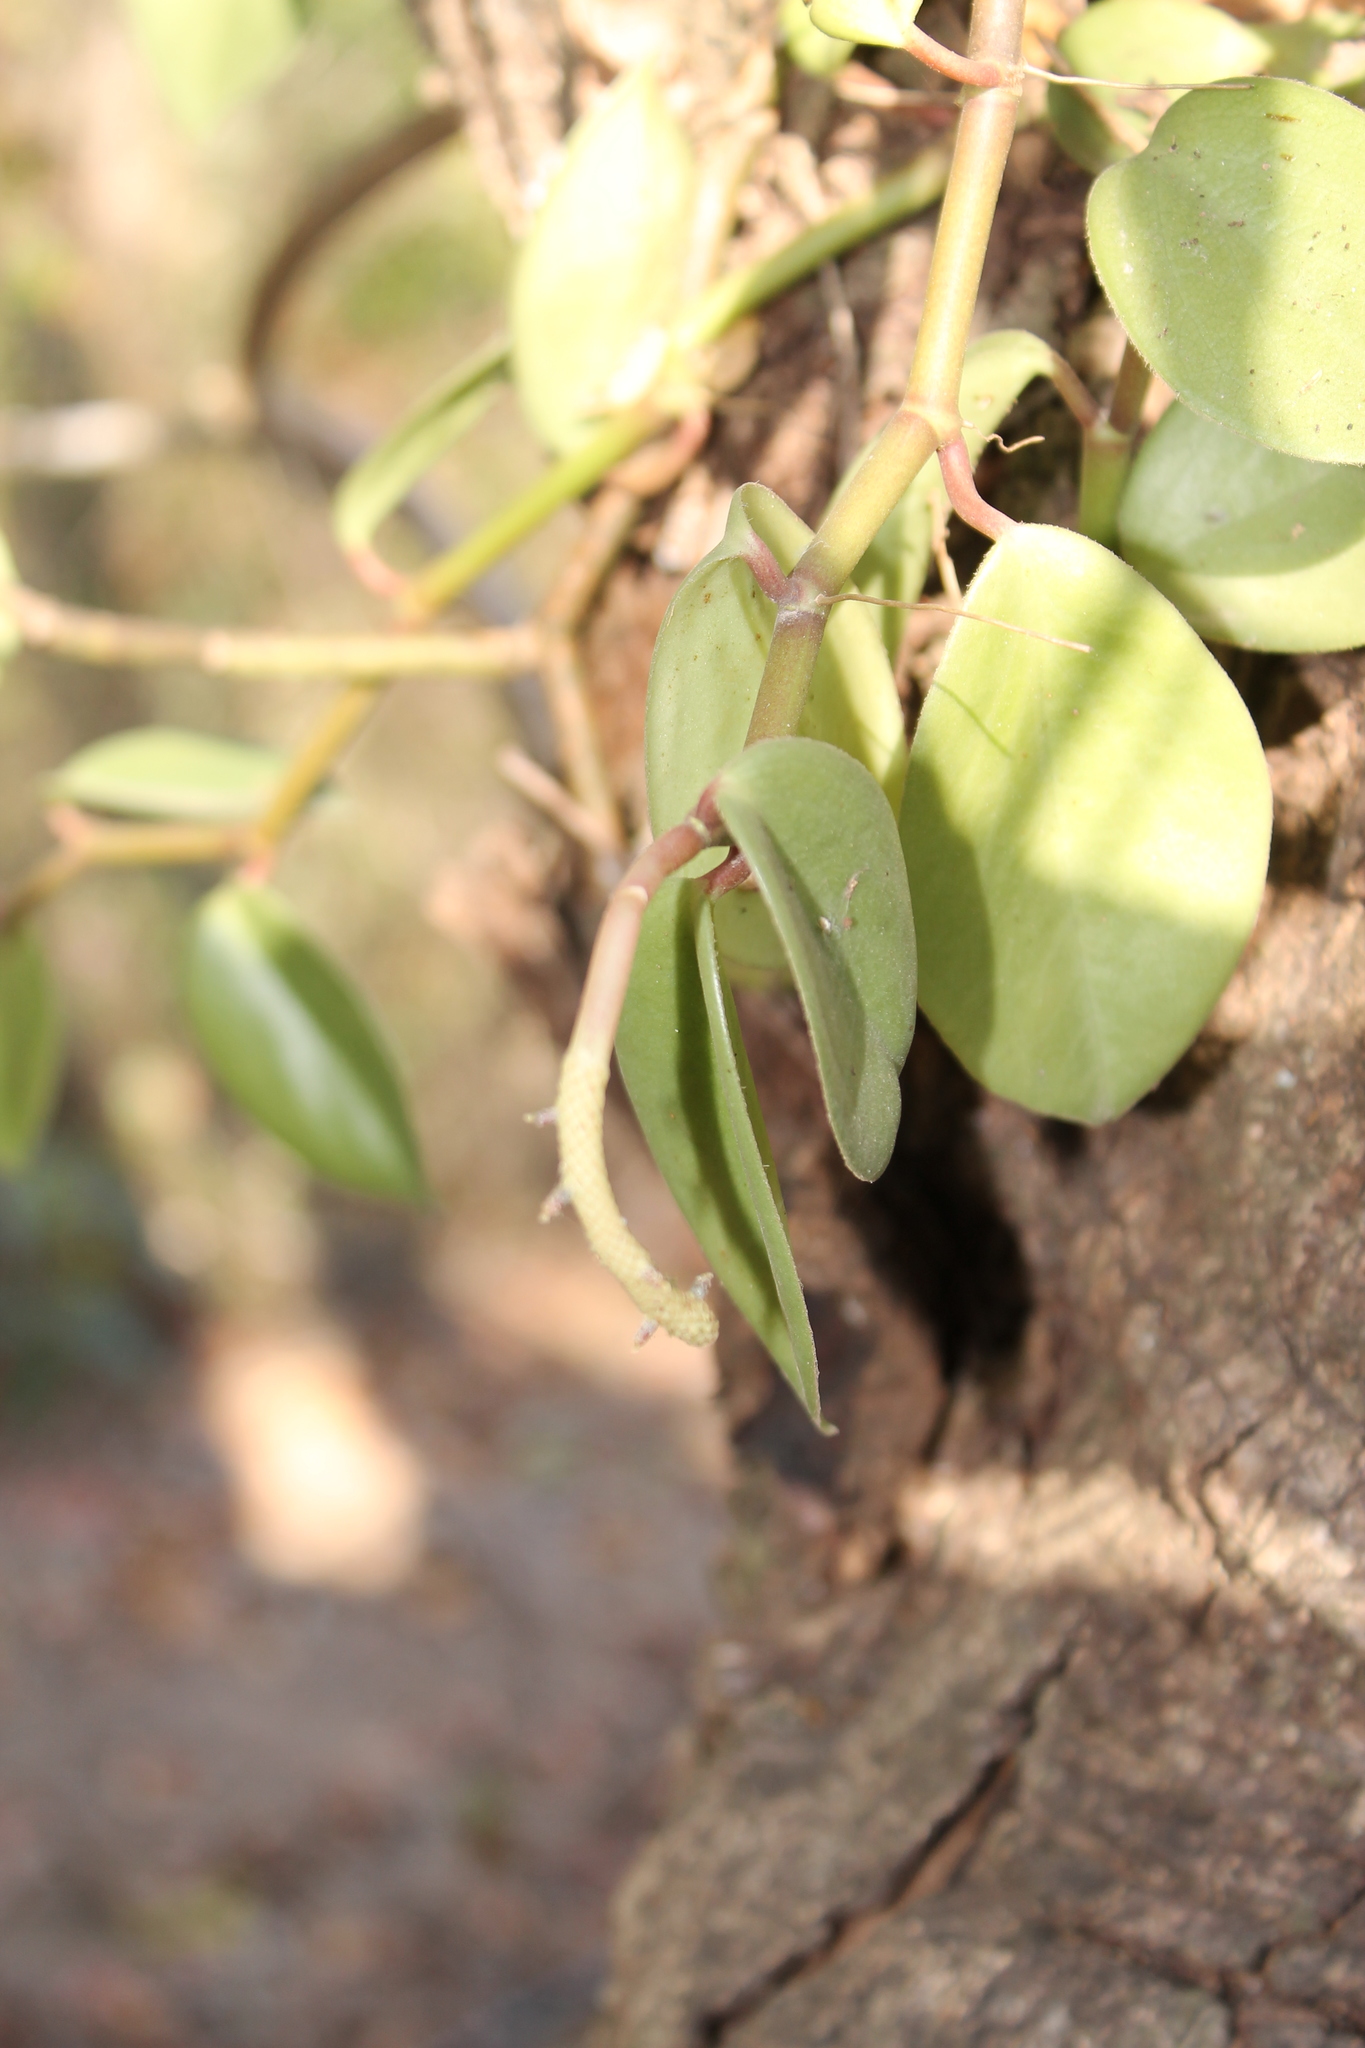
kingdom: Plantae
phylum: Tracheophyta
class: Magnoliopsida
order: Piperales
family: Piperaceae
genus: Peperomia
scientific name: Peperomia tlapacoyoensis
